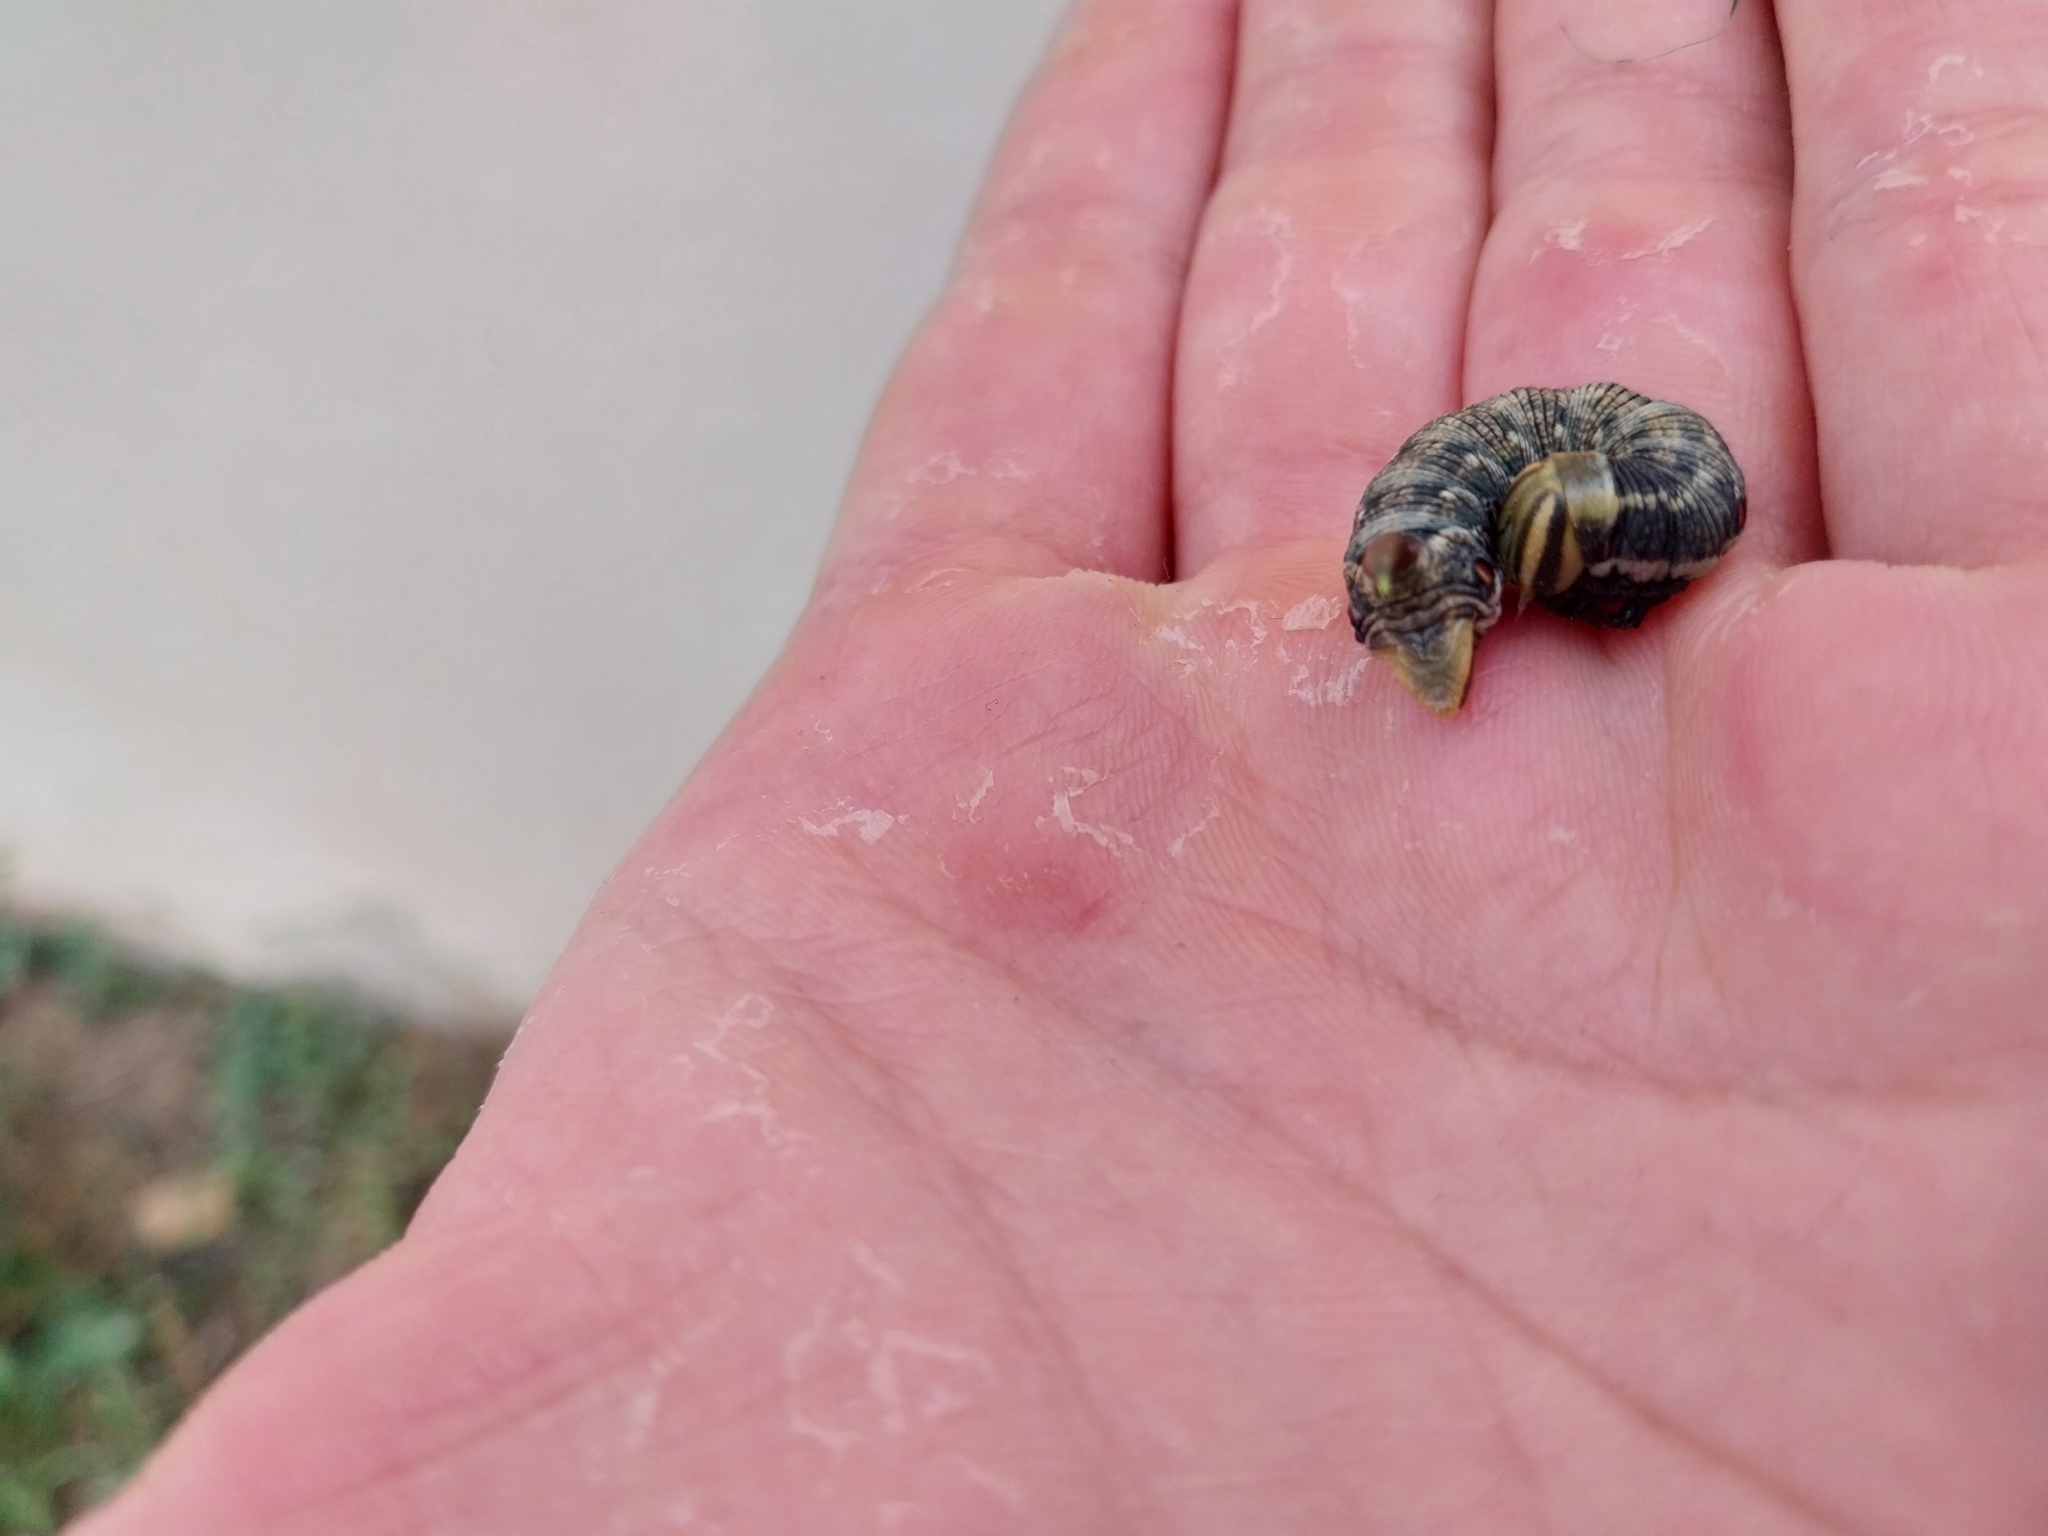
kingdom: Animalia
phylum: Arthropoda
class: Insecta
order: Lepidoptera
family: Sphingidae
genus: Agrius
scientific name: Agrius convolvuli
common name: Convolvulus hawkmoth
